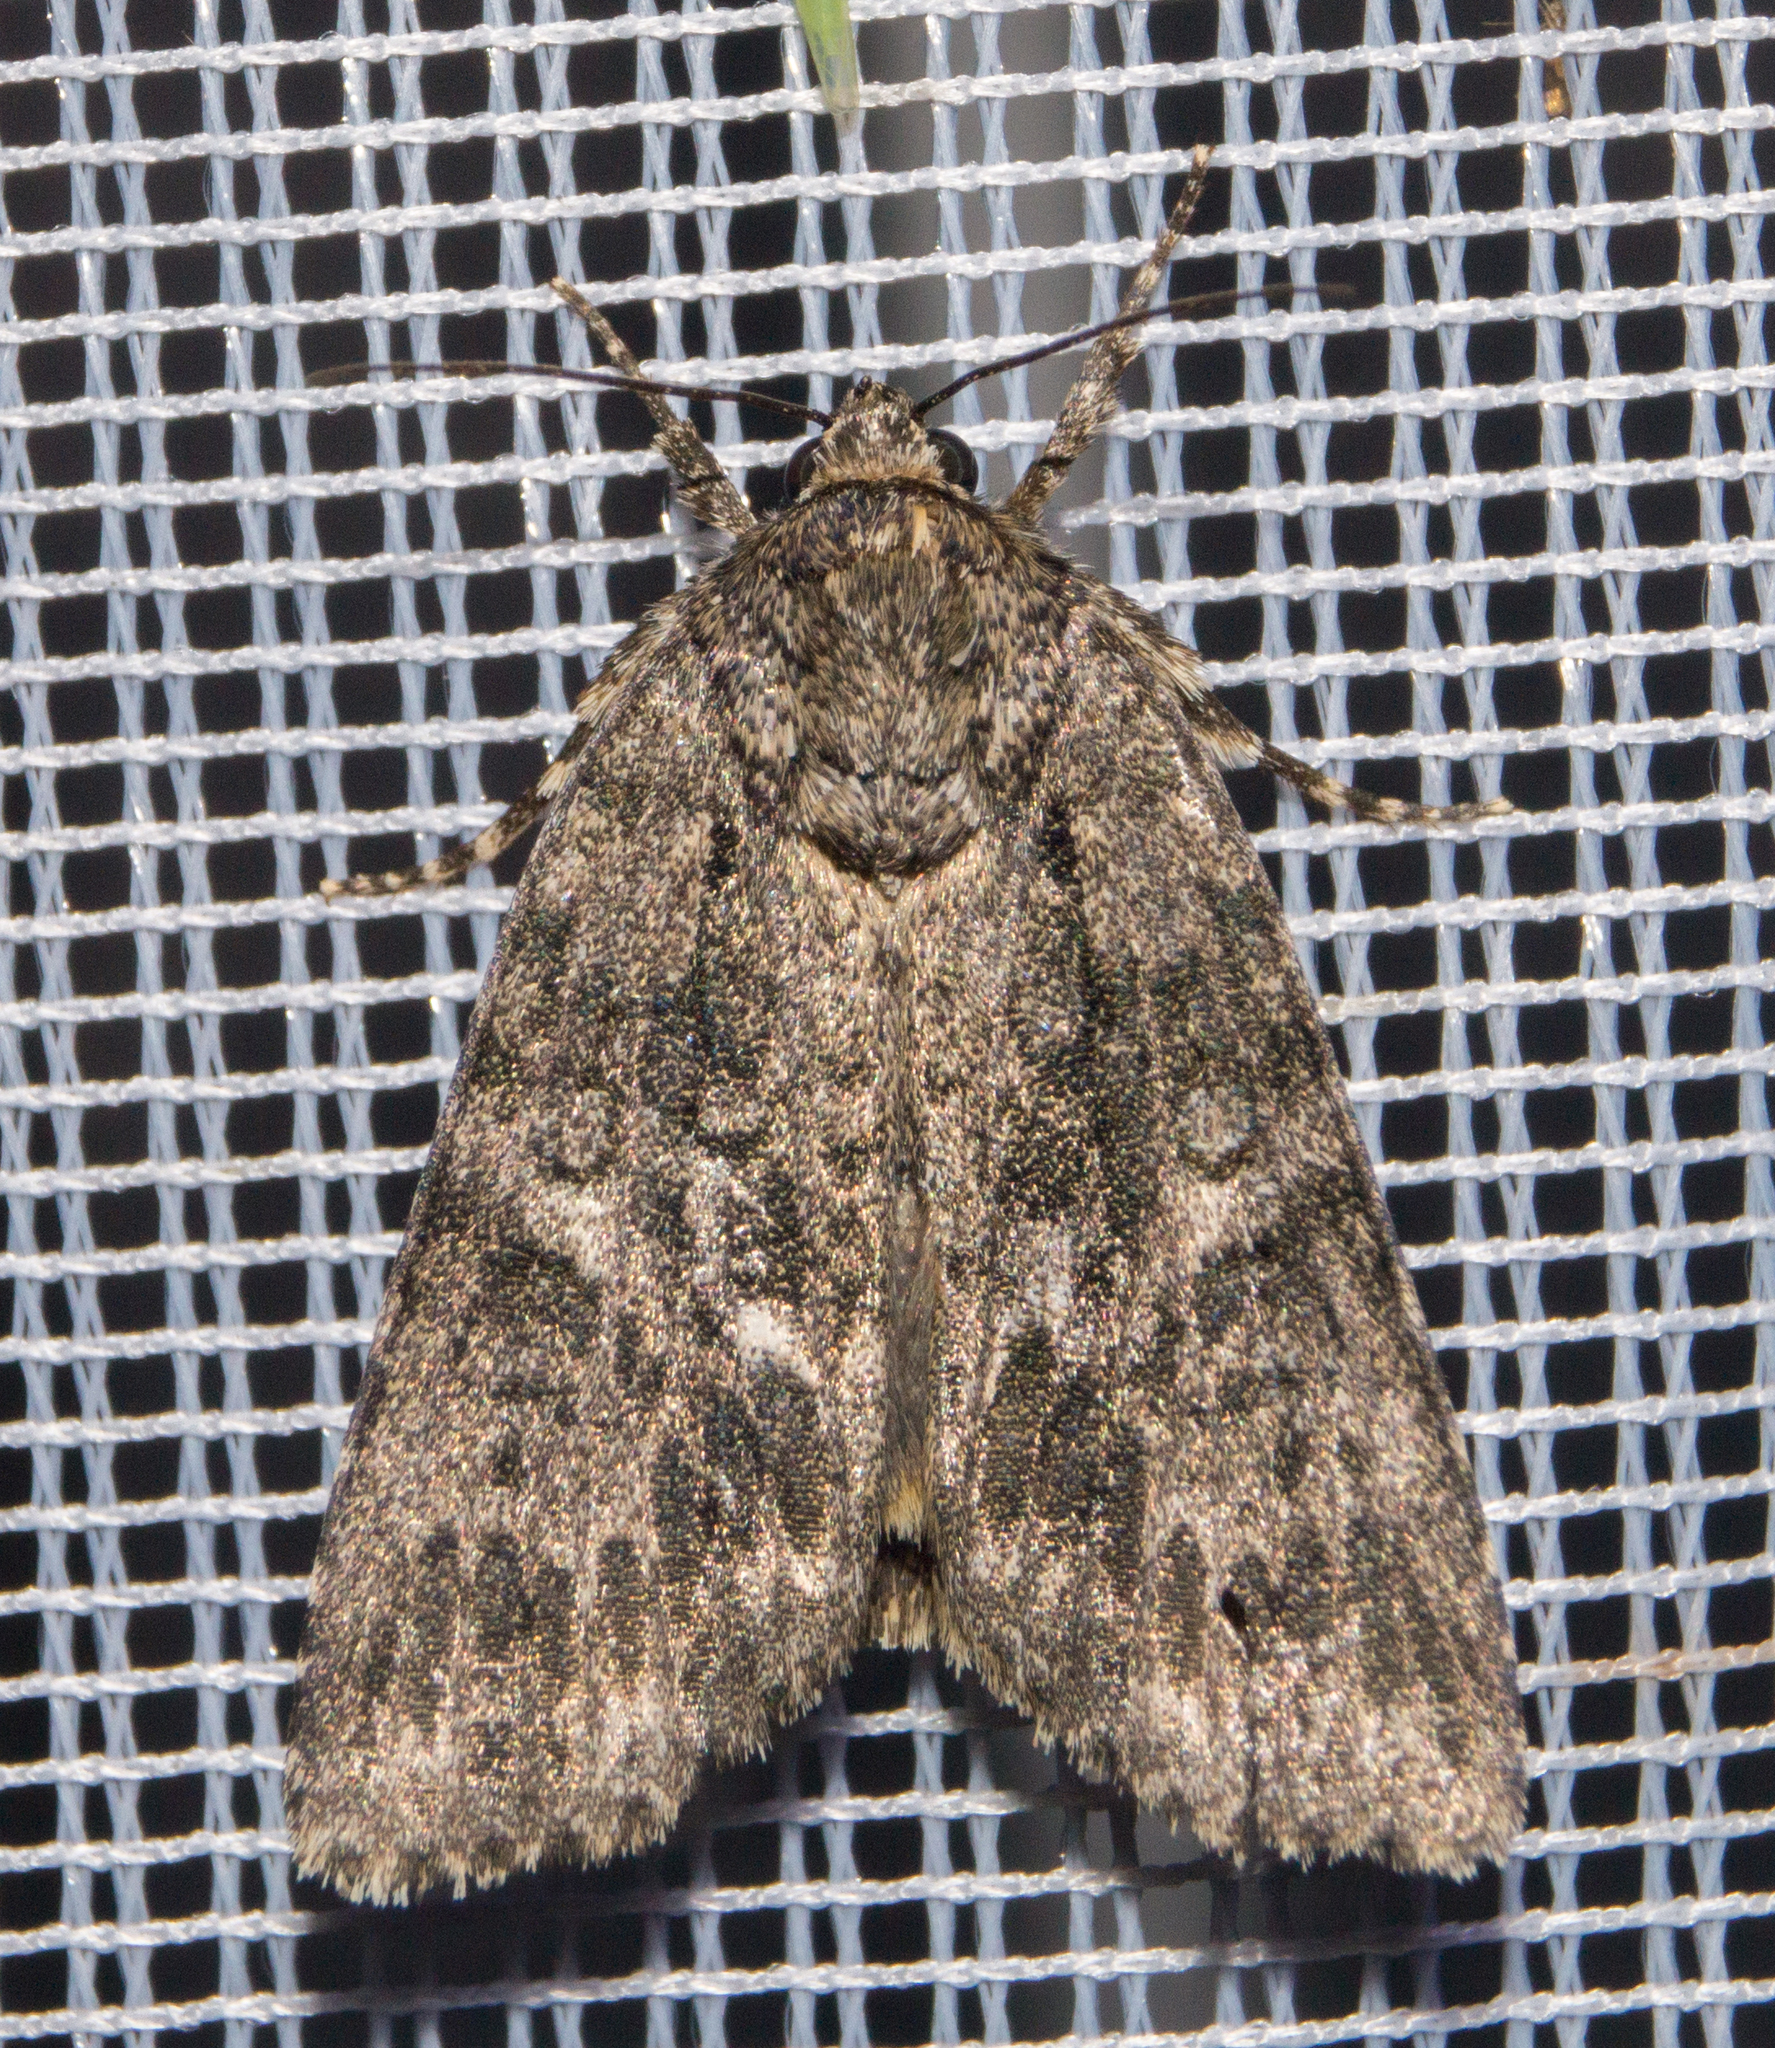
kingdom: Animalia
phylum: Arthropoda
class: Insecta
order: Lepidoptera
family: Noctuidae
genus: Acronicta
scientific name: Acronicta rumicis
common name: Knot grass
